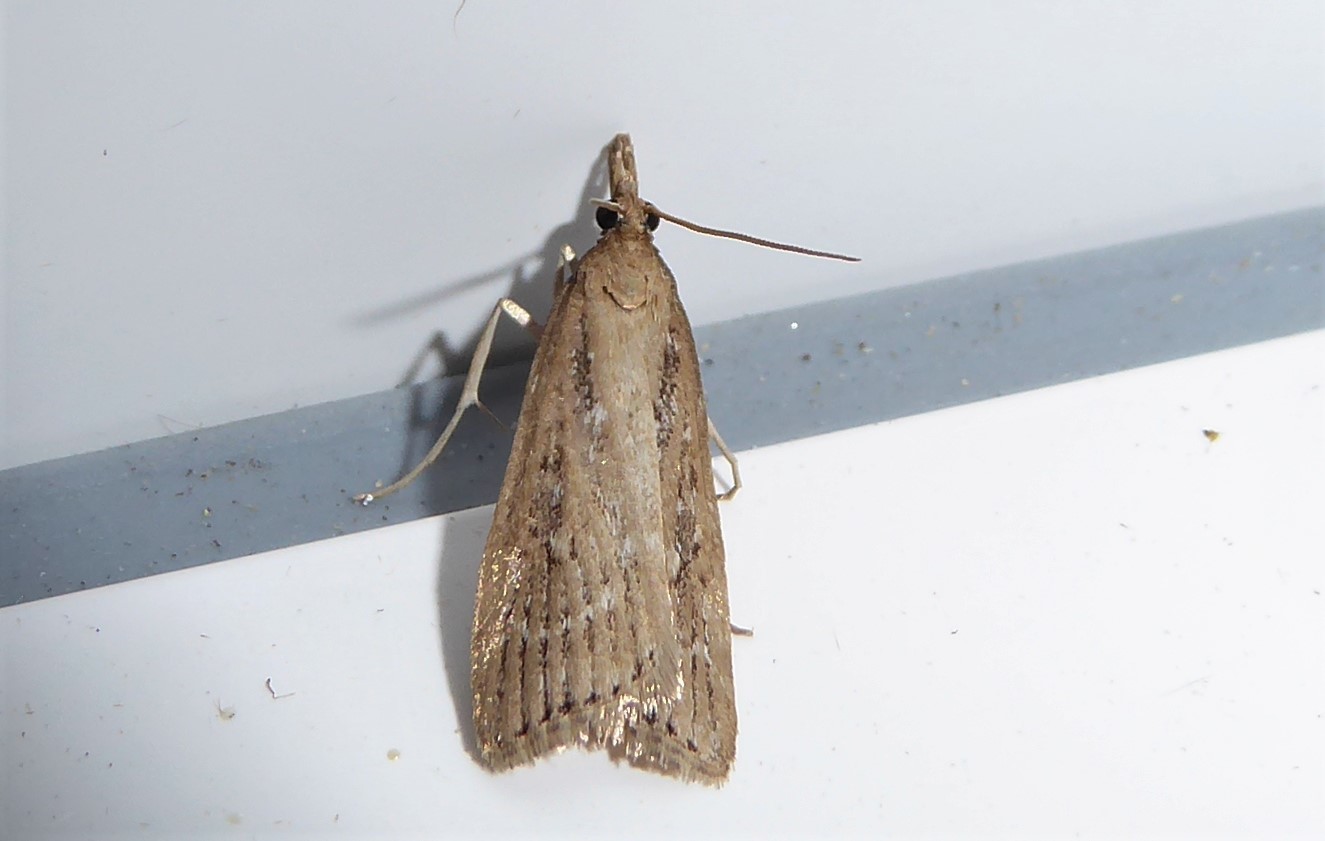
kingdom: Animalia
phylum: Arthropoda
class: Insecta
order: Lepidoptera
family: Crambidae
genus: Eudonia
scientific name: Eudonia octophora
